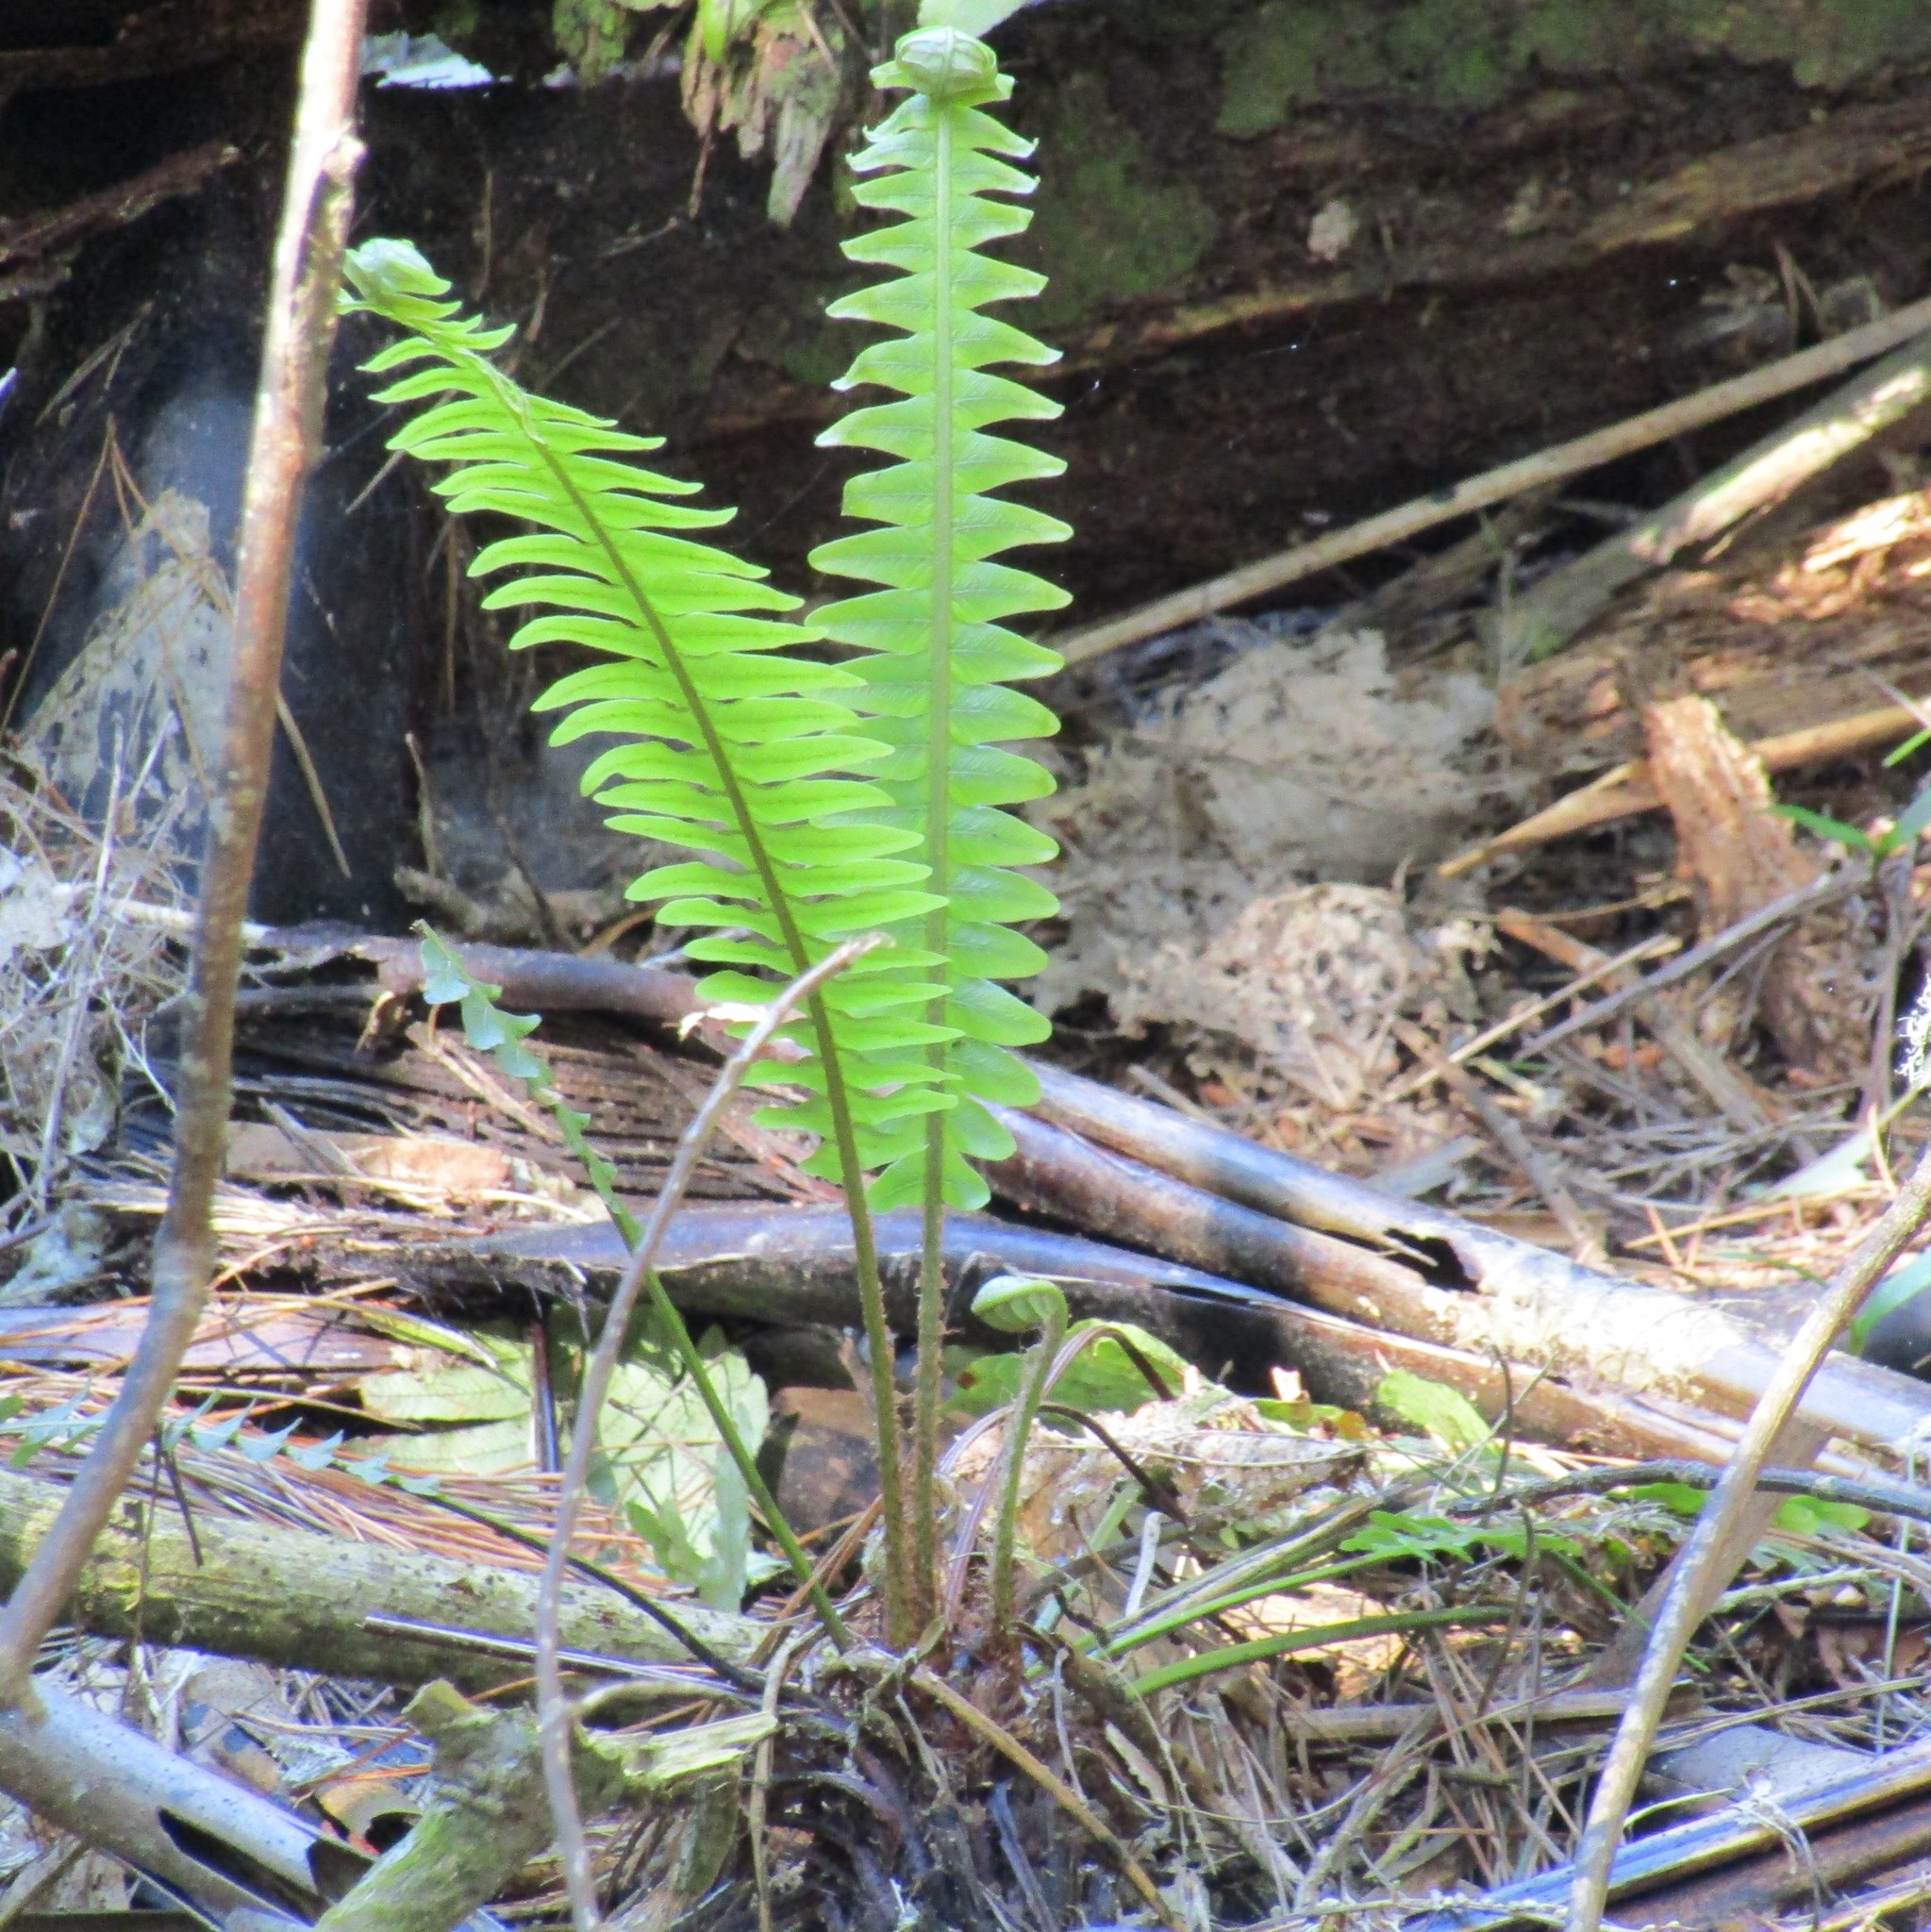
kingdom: Plantae
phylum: Tracheophyta
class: Polypodiopsida
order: Polypodiales
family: Blechnaceae
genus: Lomaria
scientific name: Lomaria discolor
